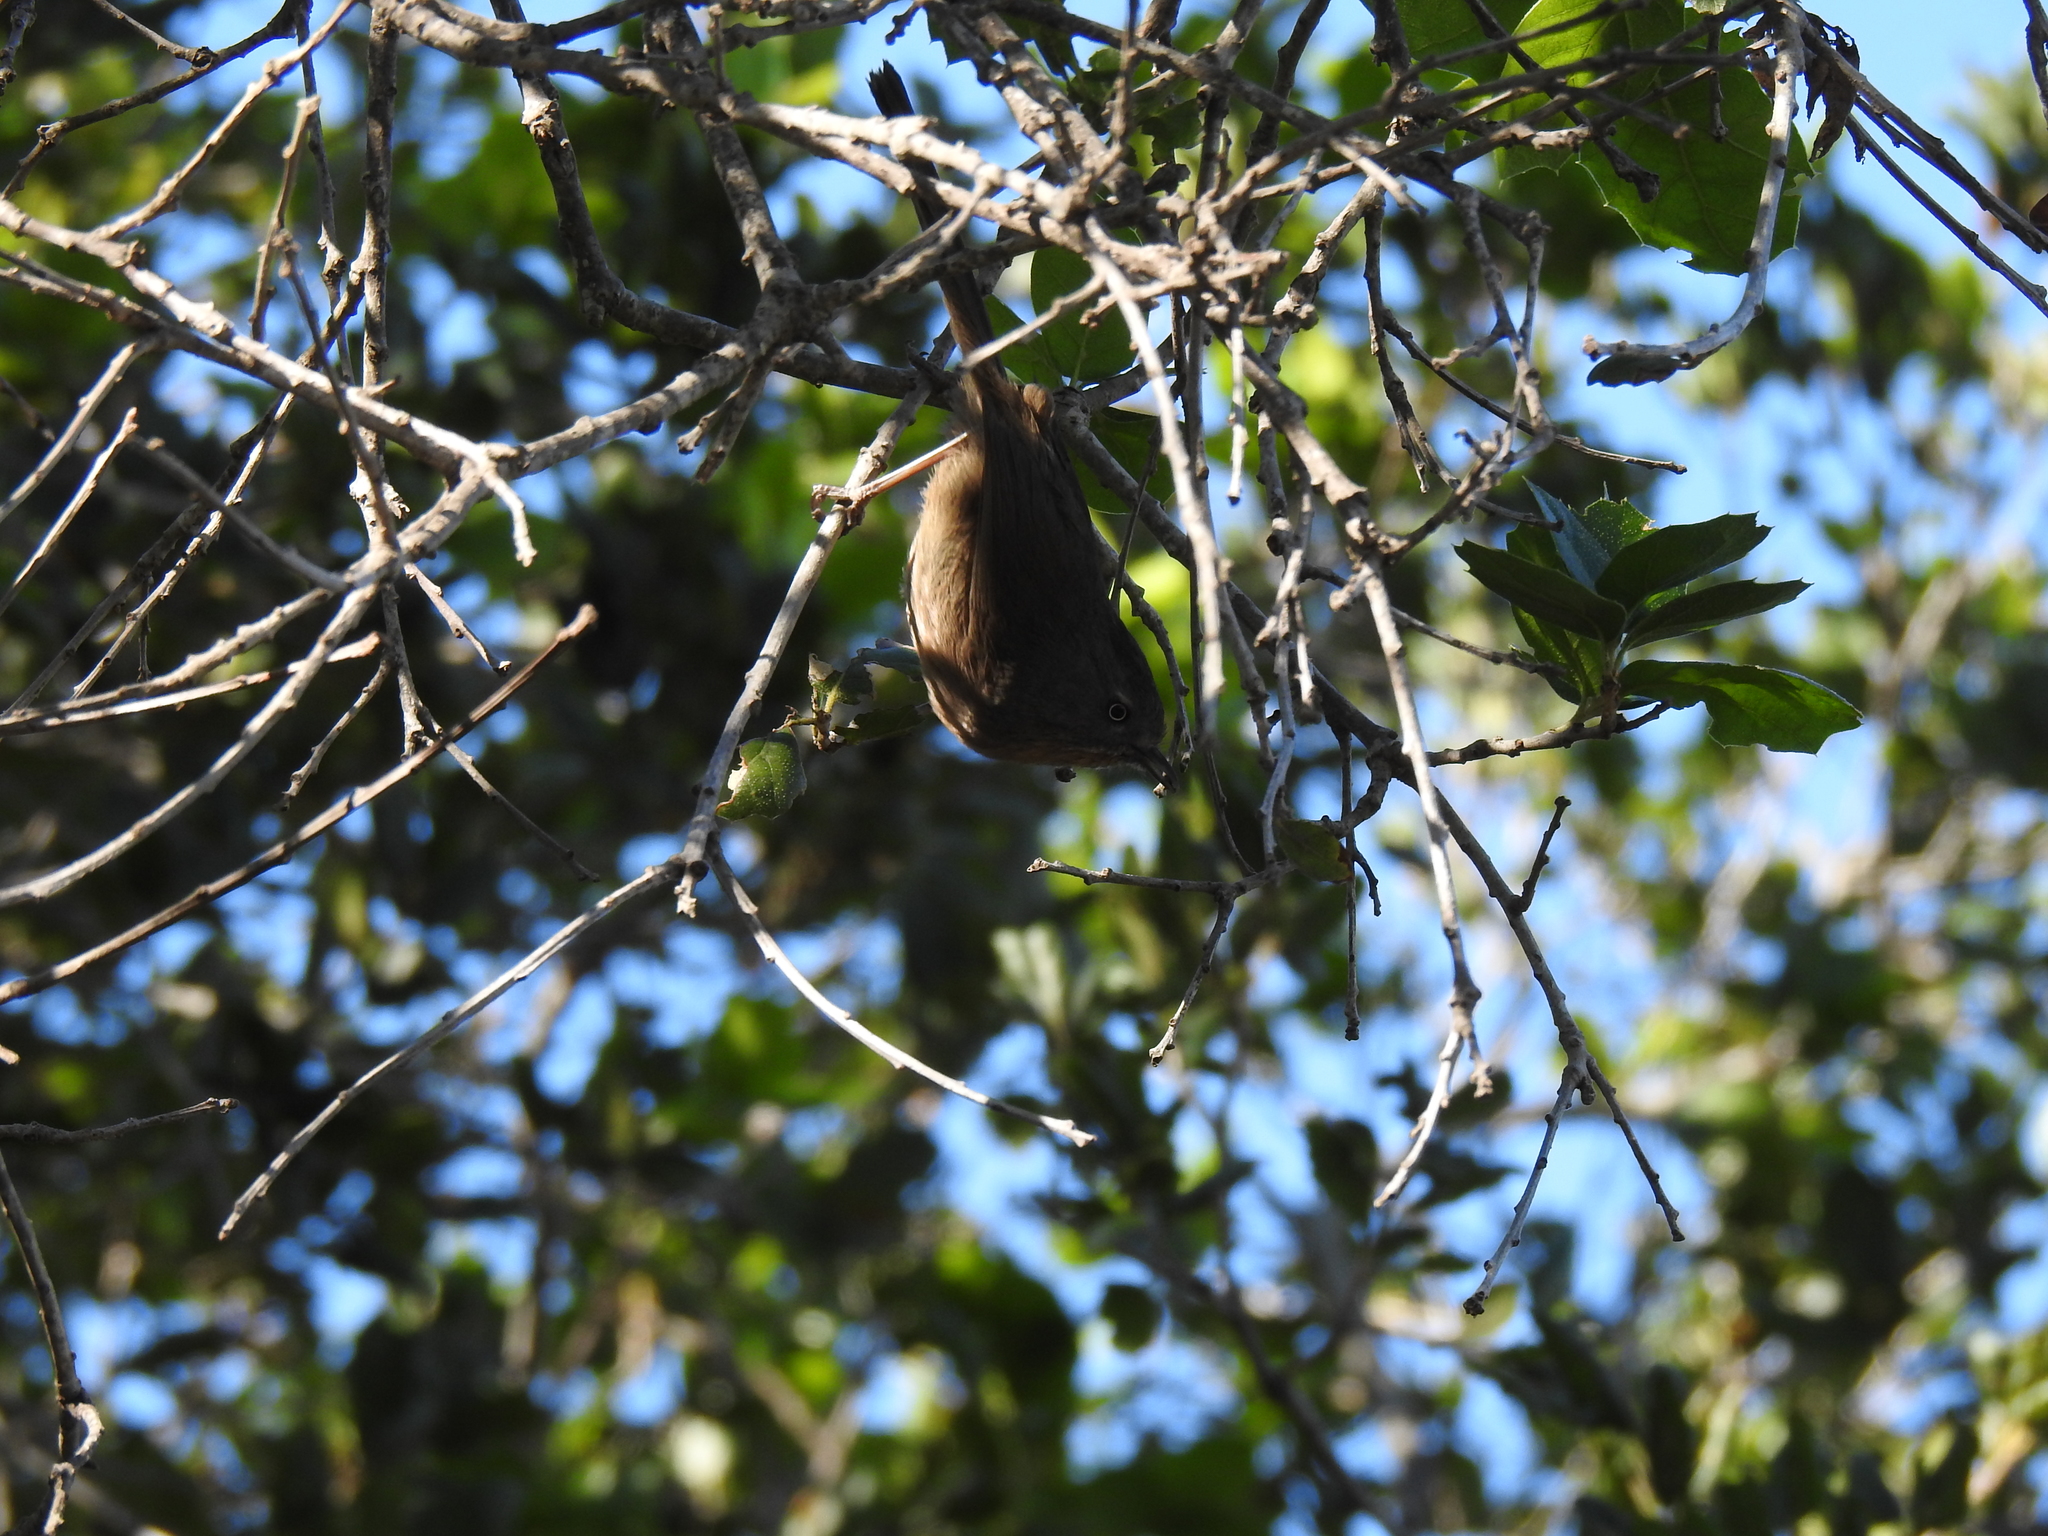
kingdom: Animalia
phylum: Chordata
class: Aves
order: Passeriformes
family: Sylviidae
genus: Chamaea
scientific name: Chamaea fasciata
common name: Wrentit
